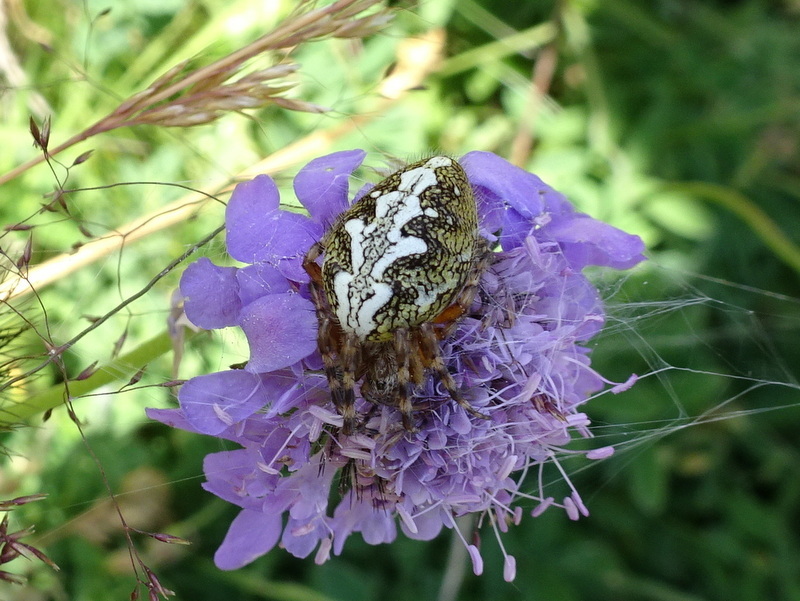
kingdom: Animalia
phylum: Arthropoda
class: Arachnida
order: Araneae
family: Araneidae
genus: Aculepeira
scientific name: Aculepeira ceropegia
